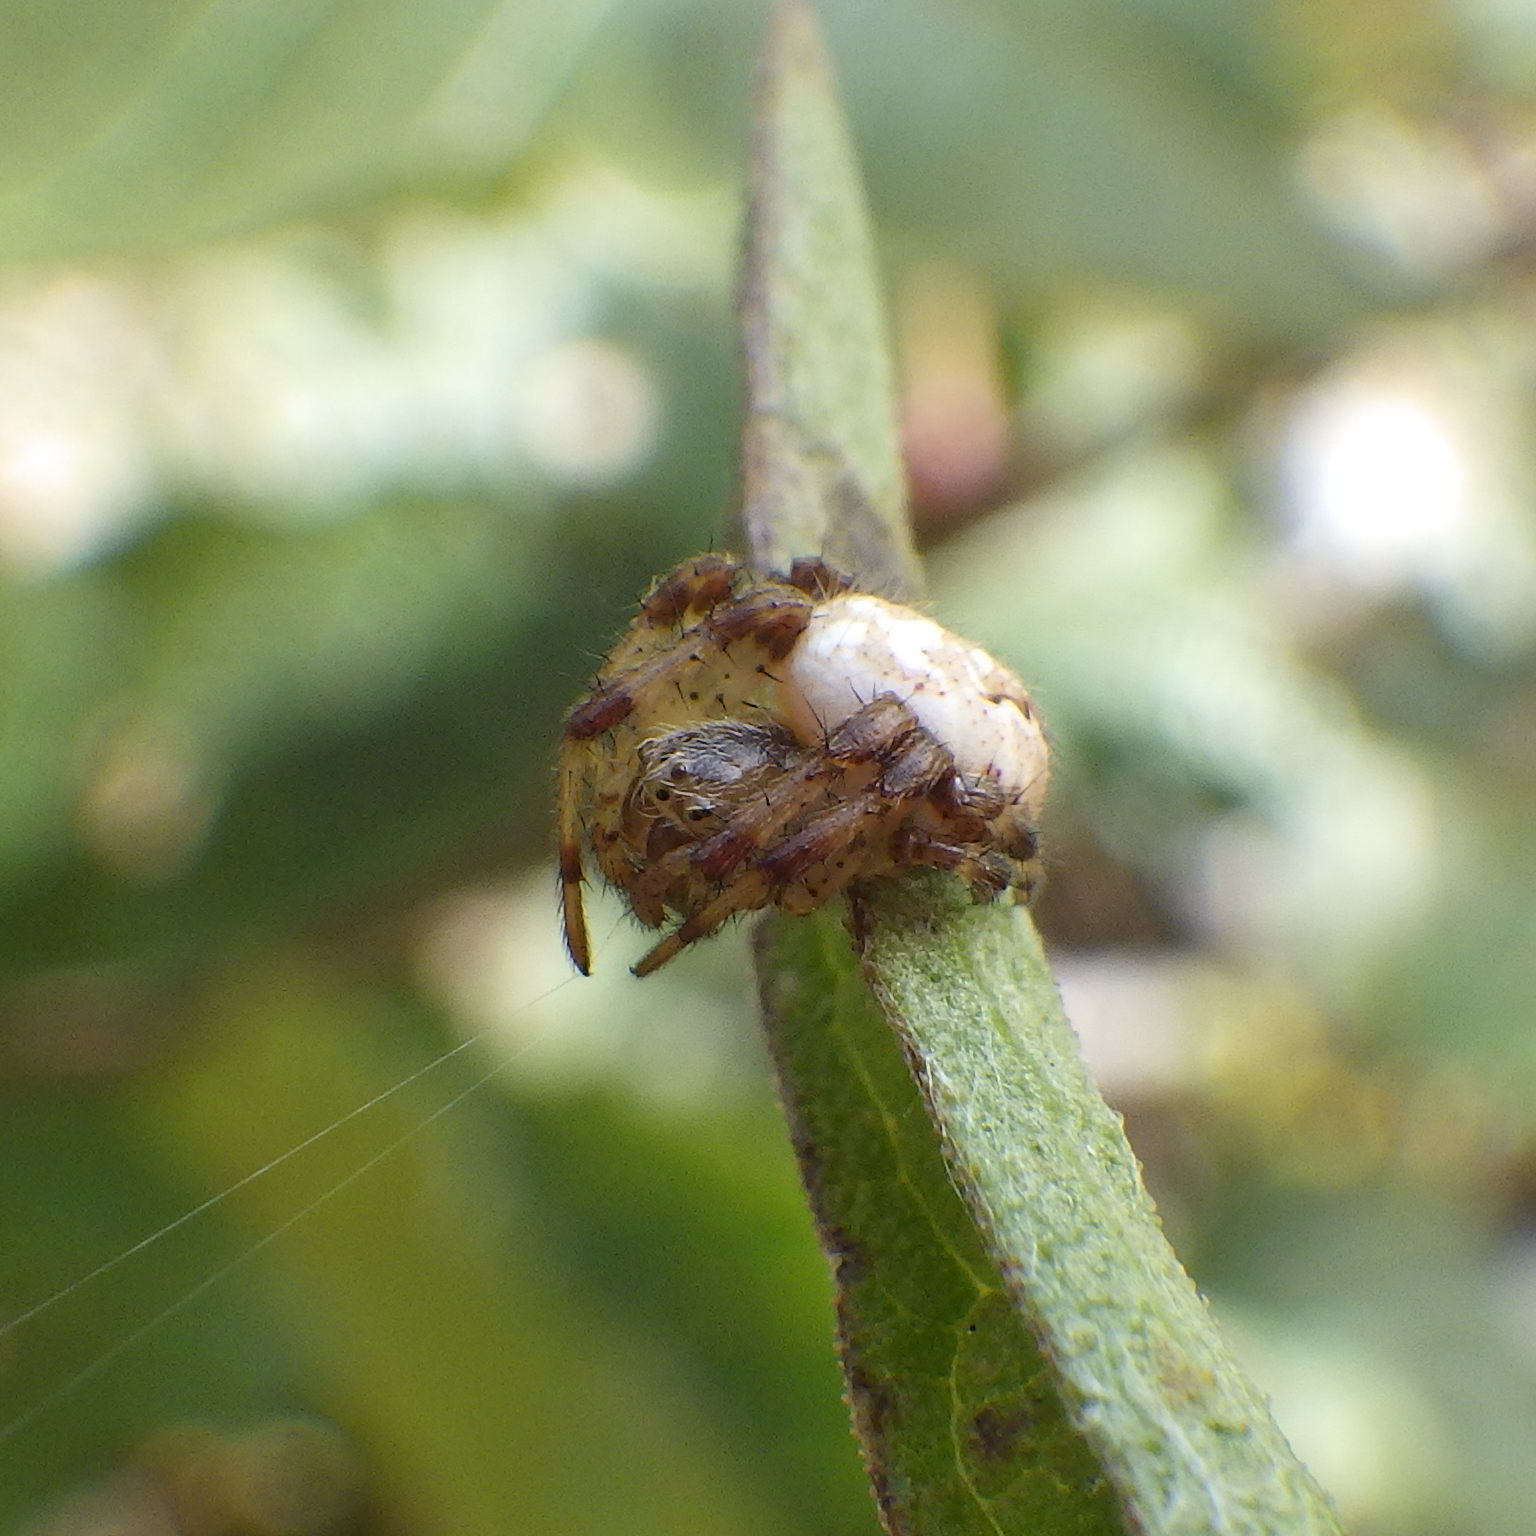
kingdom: Animalia
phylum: Arthropoda
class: Arachnida
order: Araneae
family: Araneidae
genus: Araneus
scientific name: Araneus trifolium
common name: Shamrock orbweaver
